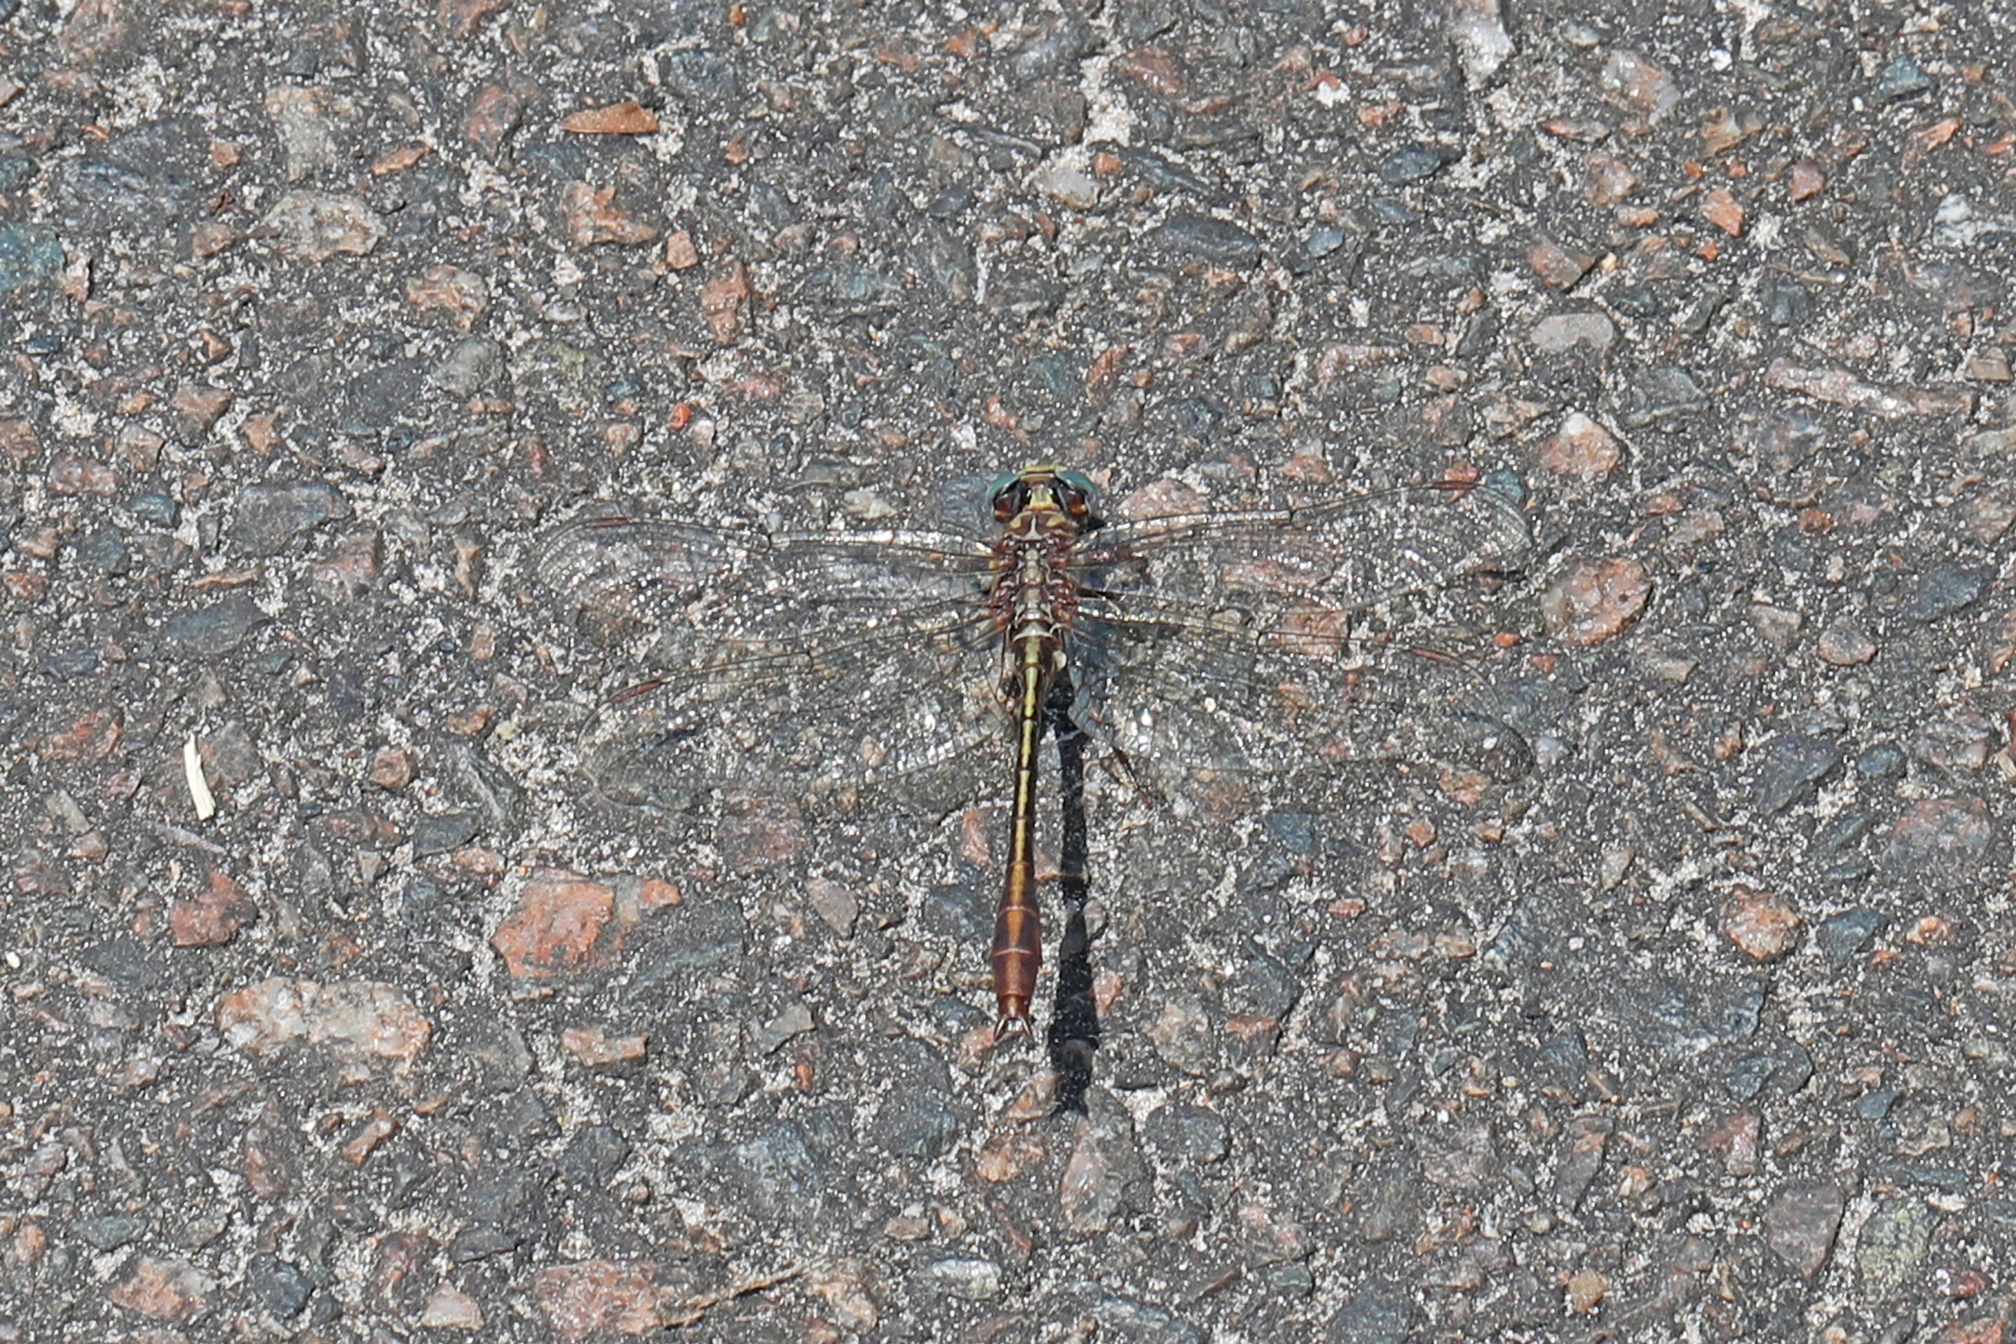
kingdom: Animalia
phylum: Arthropoda
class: Insecta
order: Odonata
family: Gomphidae
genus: Phanogomphus
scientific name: Phanogomphus minutus
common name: Cypress clubtail
